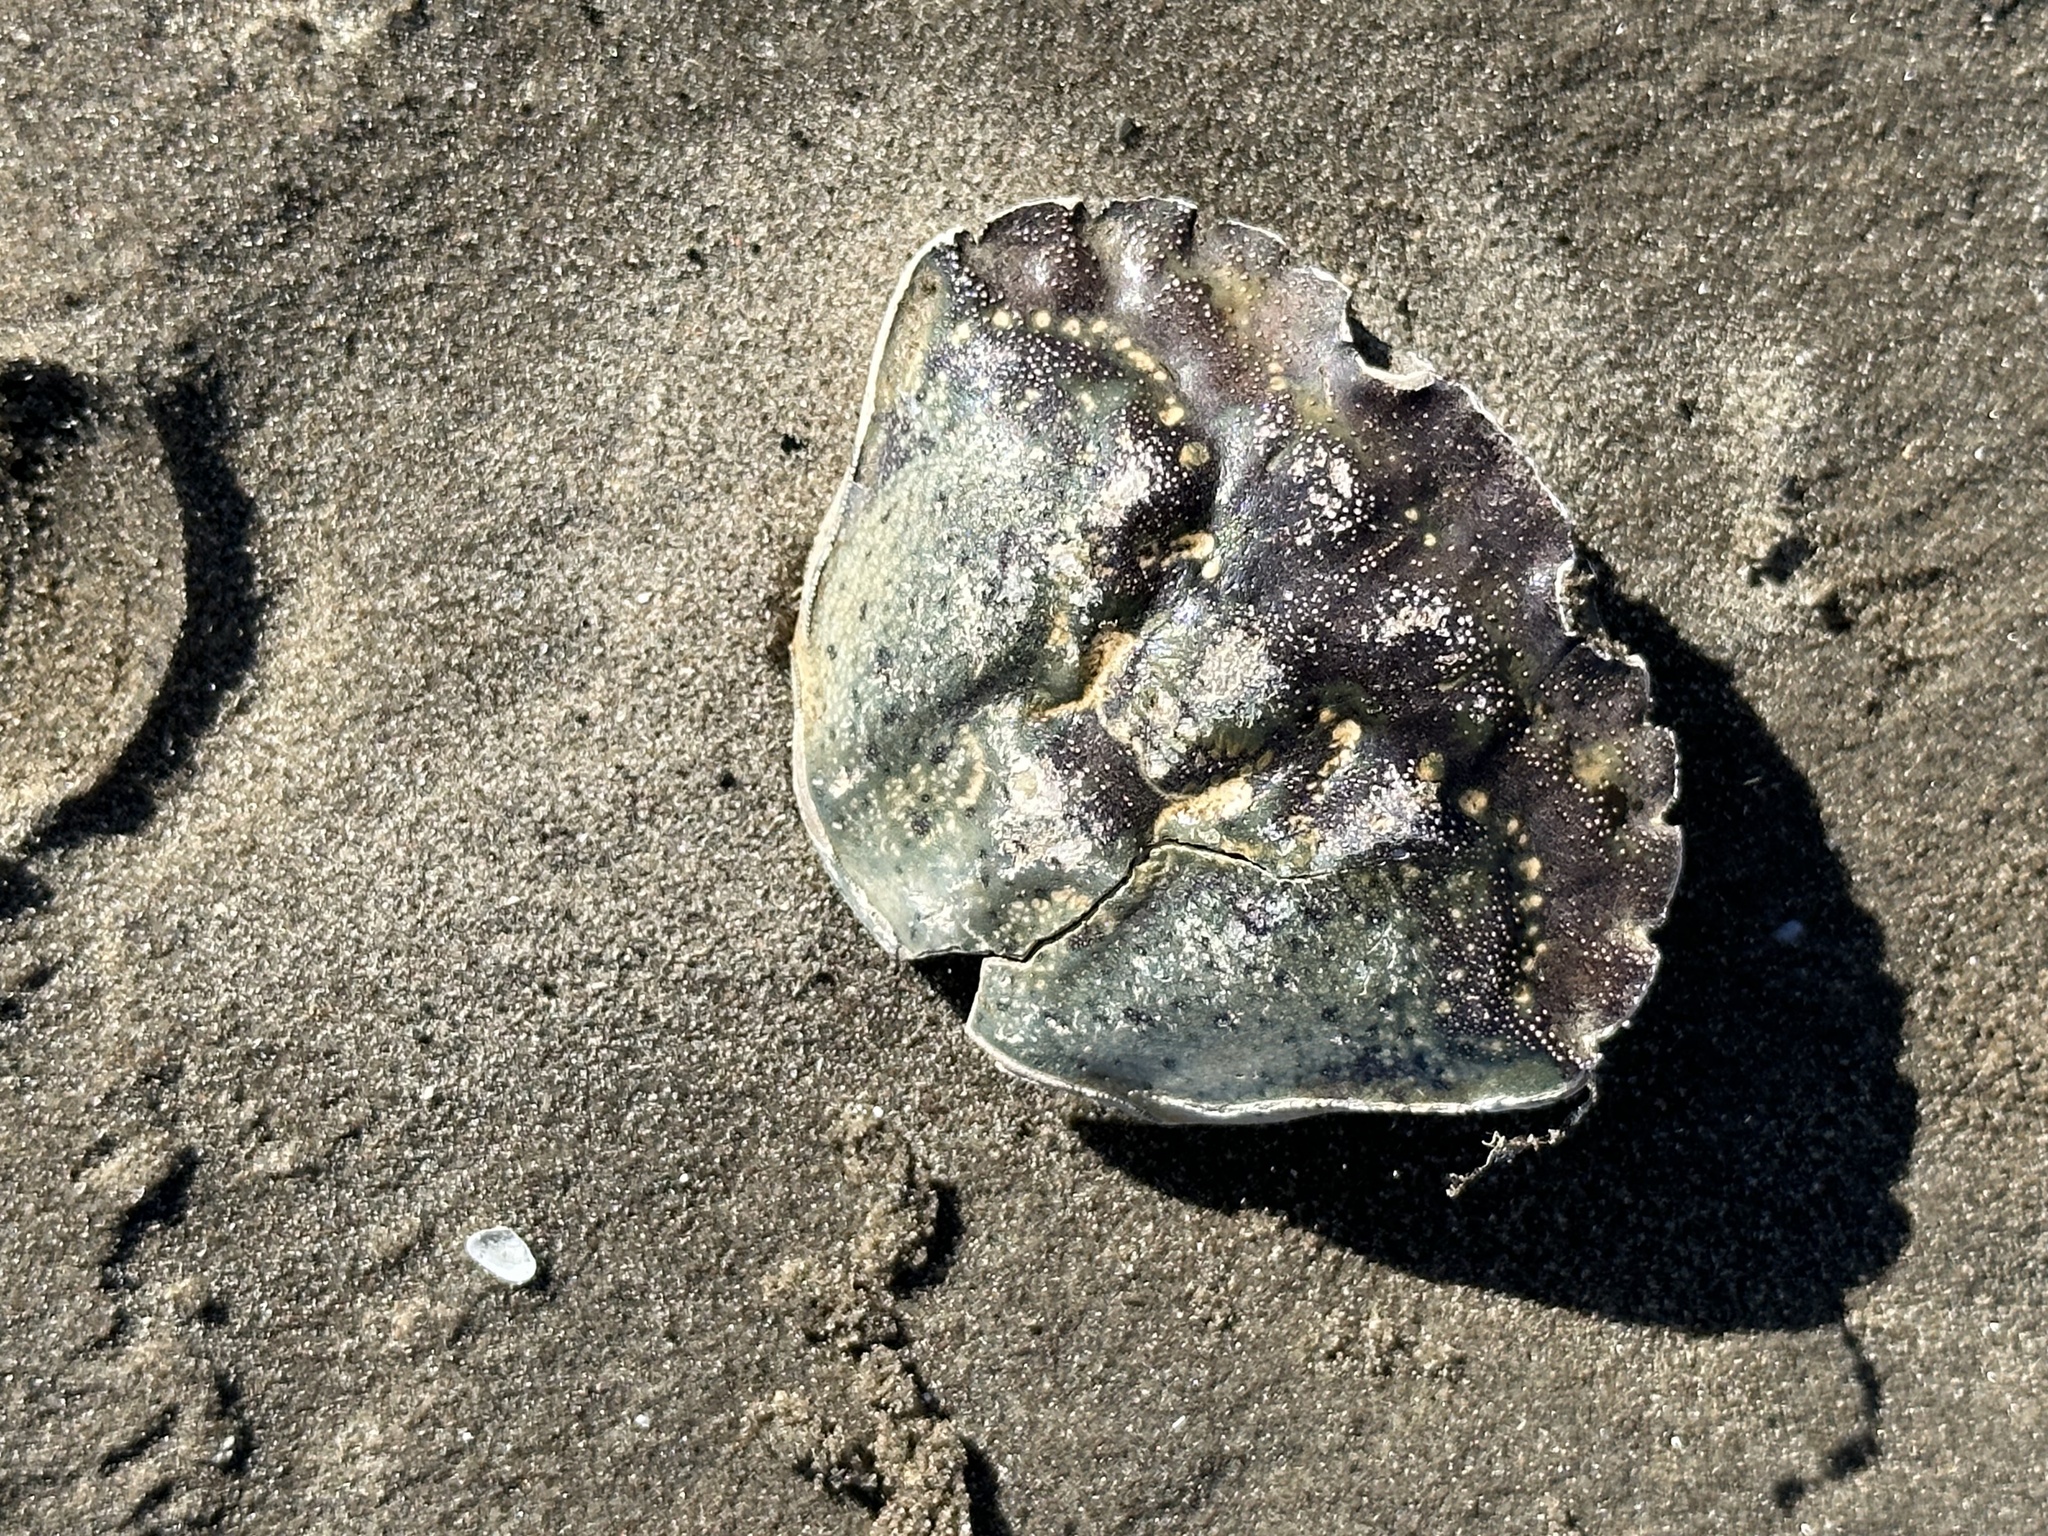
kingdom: Animalia
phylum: Arthropoda
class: Malacostraca
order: Decapoda
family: Carcinidae
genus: Carcinus
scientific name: Carcinus maenas
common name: European green crab
